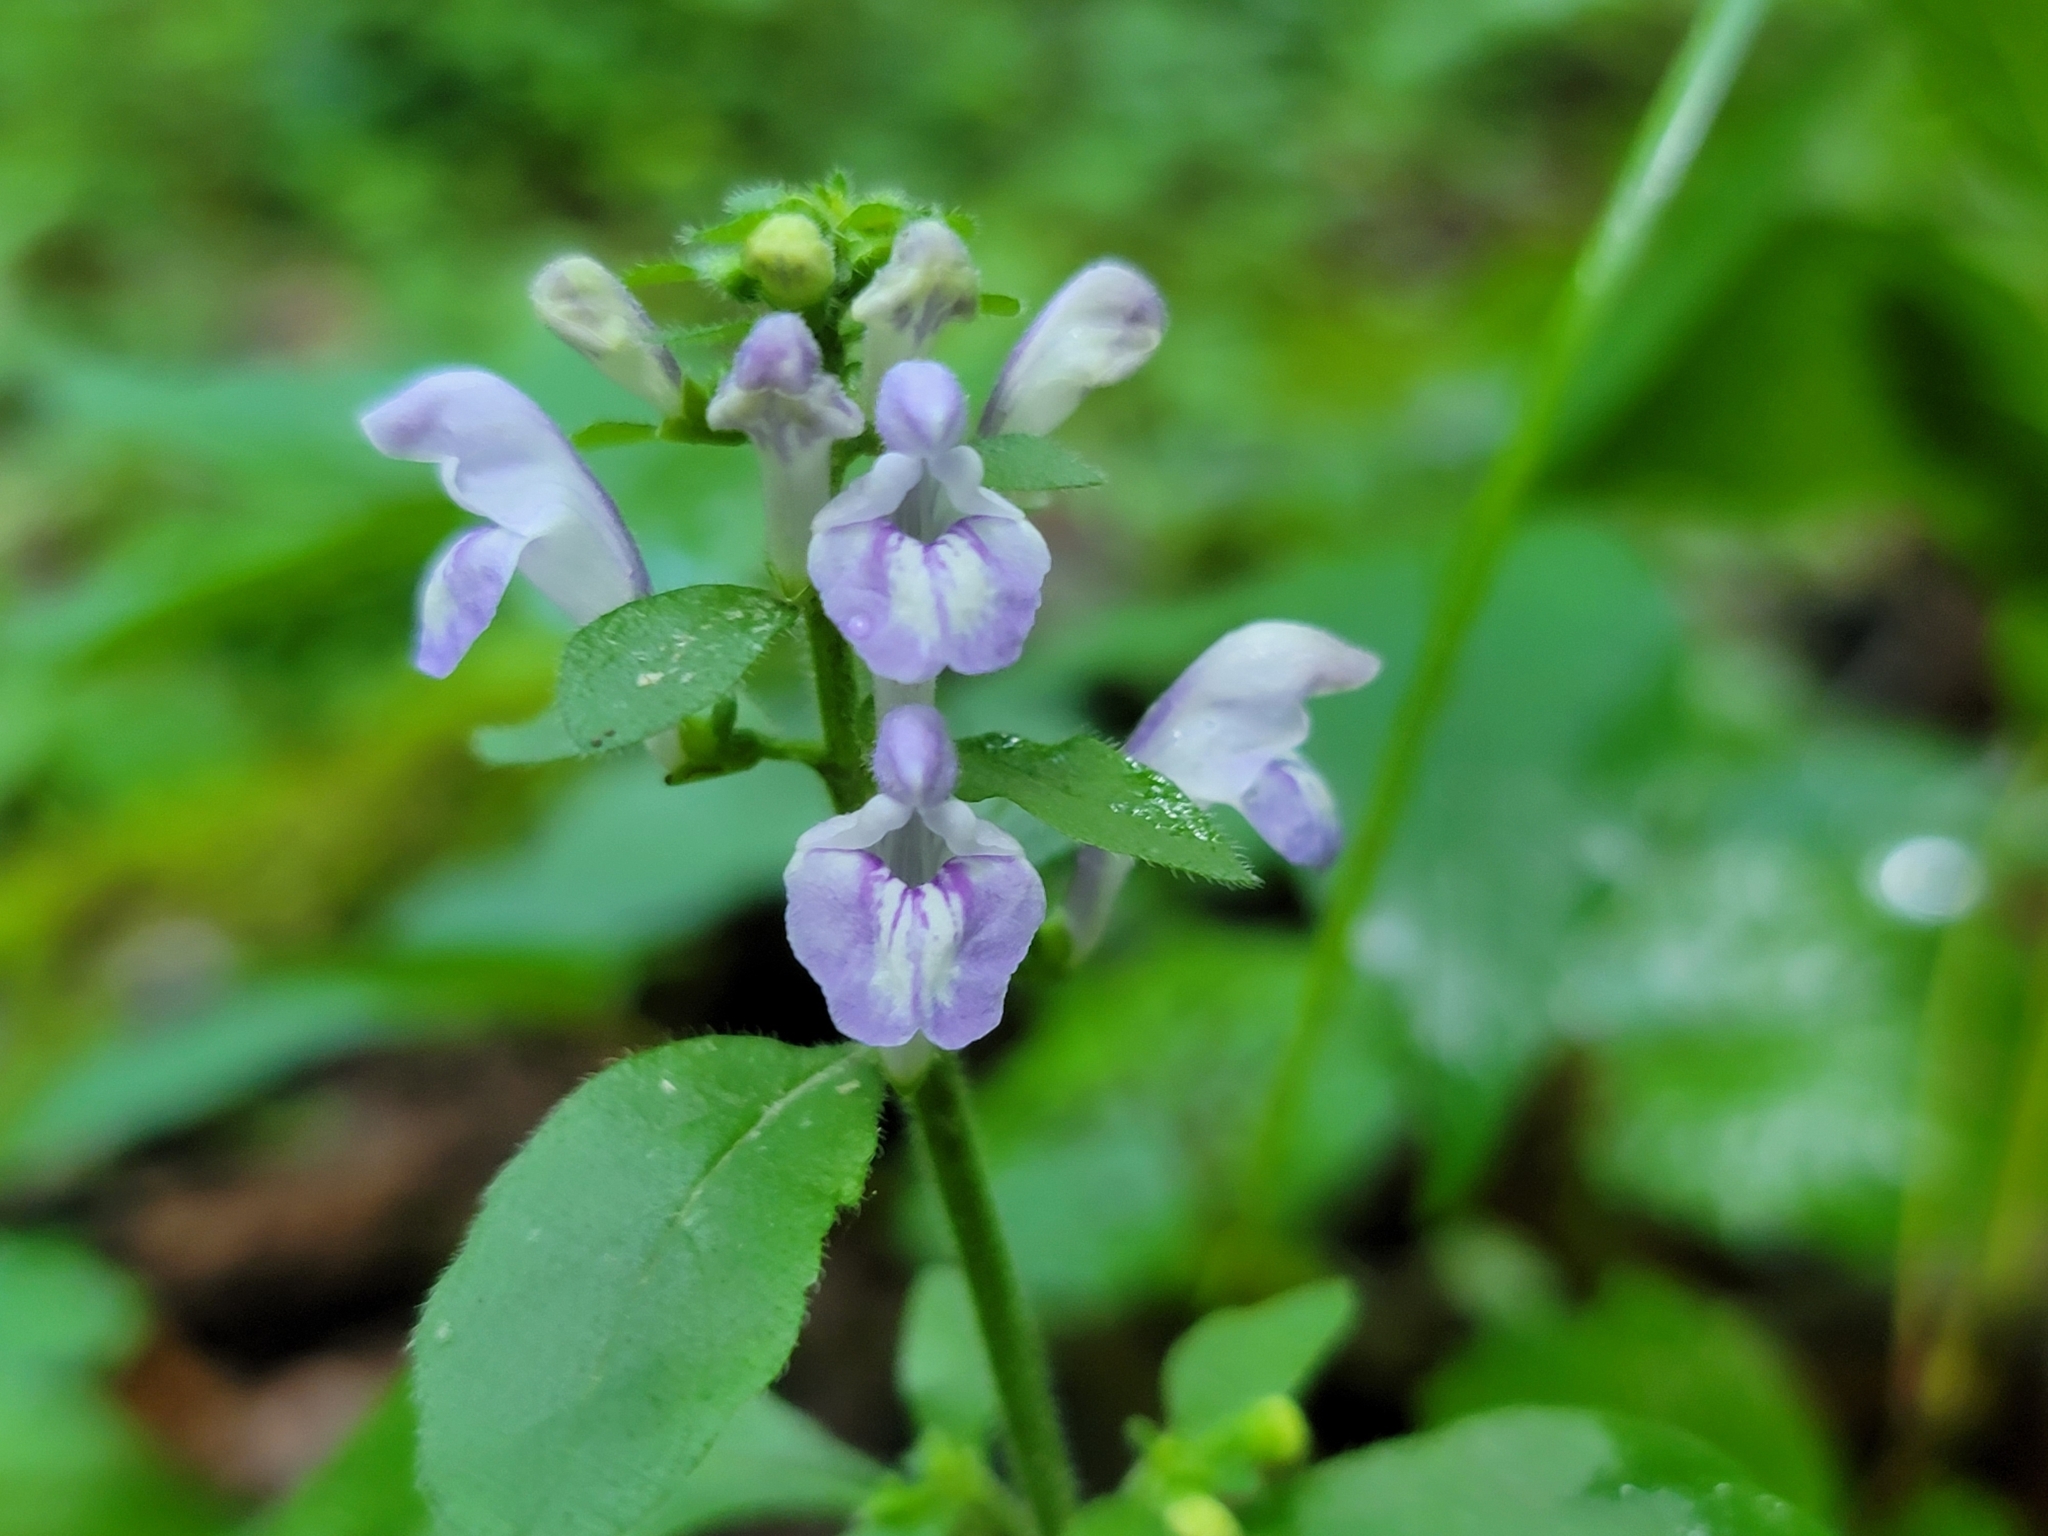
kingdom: Plantae
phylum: Tracheophyta
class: Magnoliopsida
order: Lamiales
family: Lamiaceae
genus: Scutellaria
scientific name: Scutellaria elliptica
